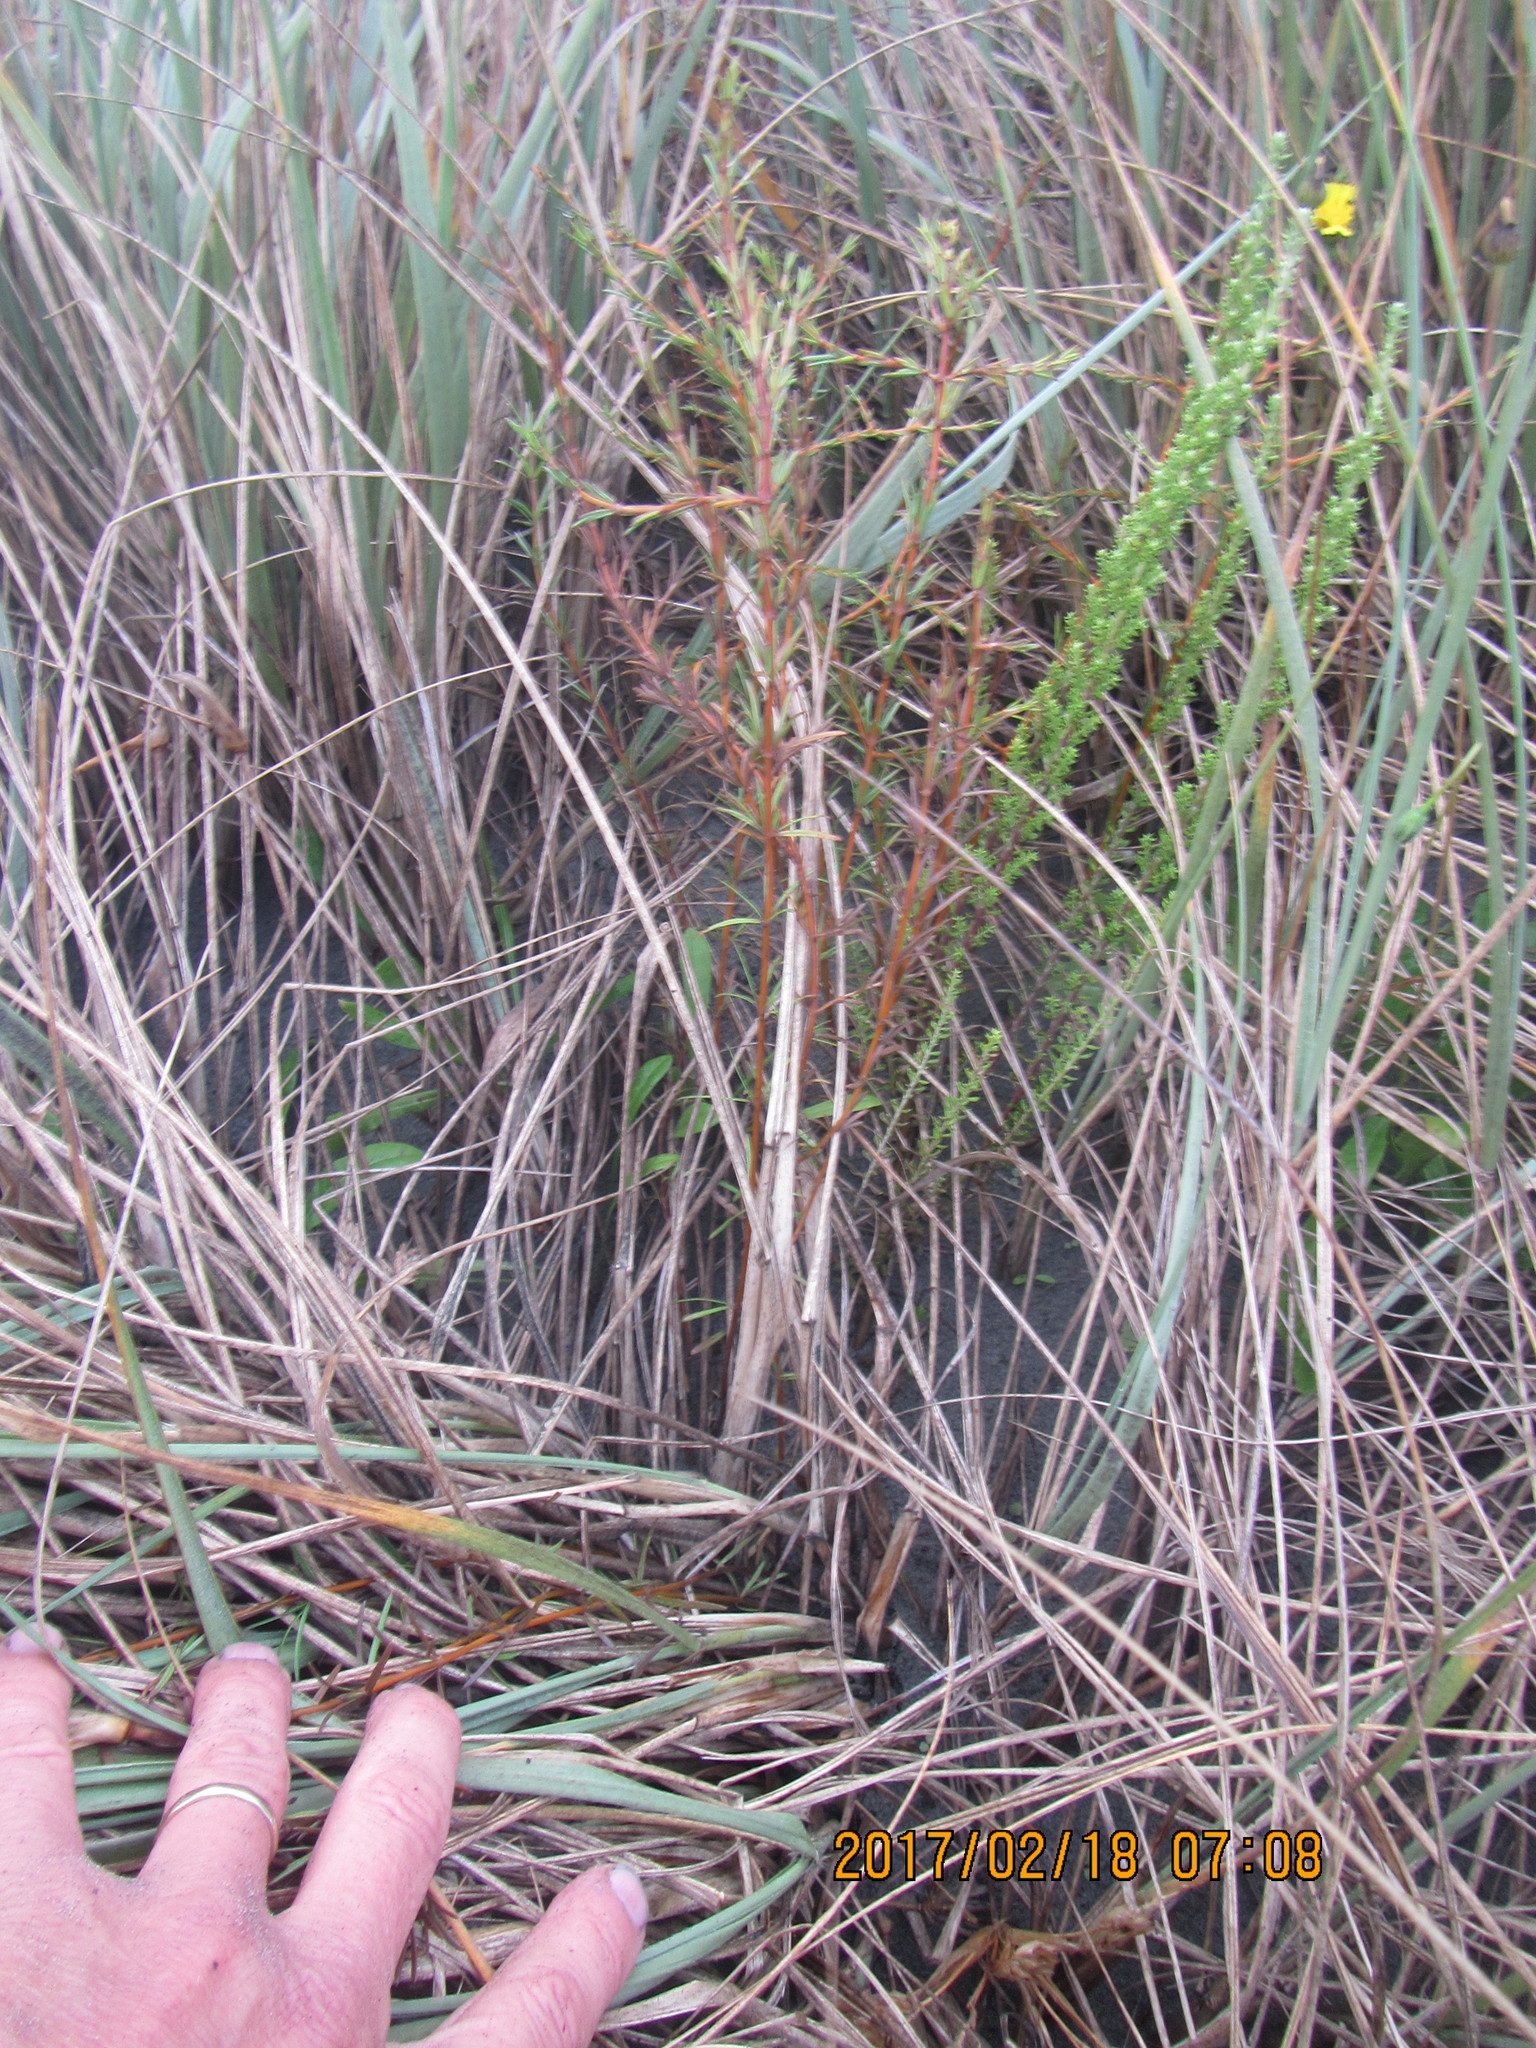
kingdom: Plantae
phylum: Tracheophyta
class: Magnoliopsida
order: Gentianales
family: Rubiaceae
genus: Coprosma
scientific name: Coprosma acerosa
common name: Sand coprosma
